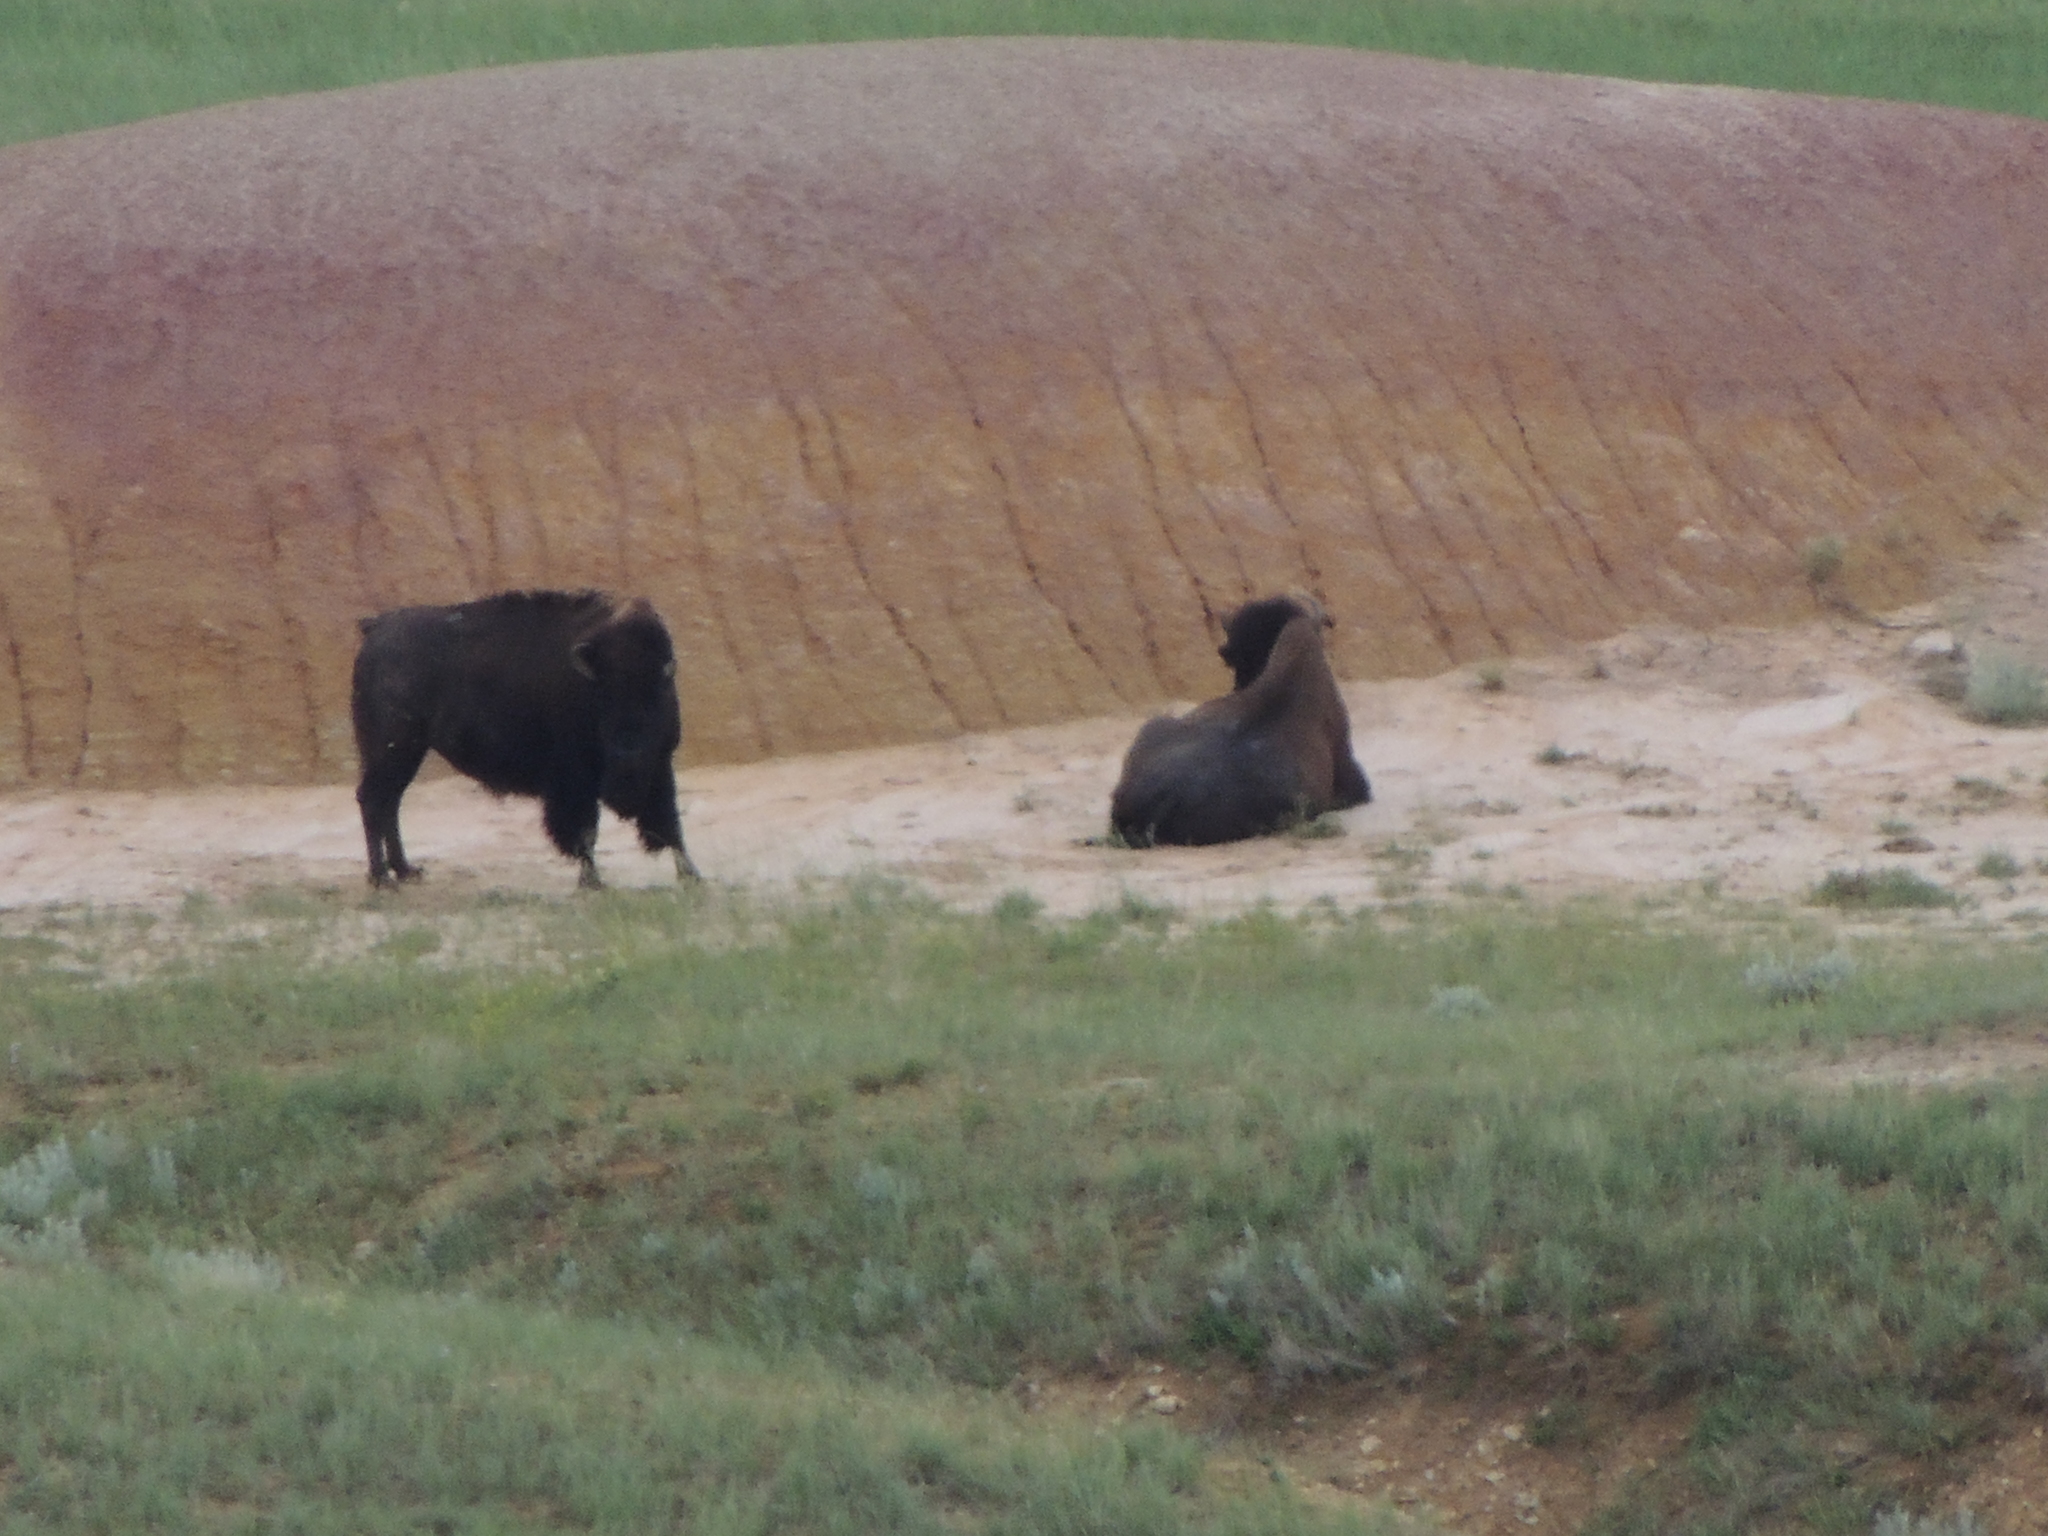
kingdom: Animalia
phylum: Chordata
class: Mammalia
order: Artiodactyla
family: Bovidae
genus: Bison
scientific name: Bison bison
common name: American bison
